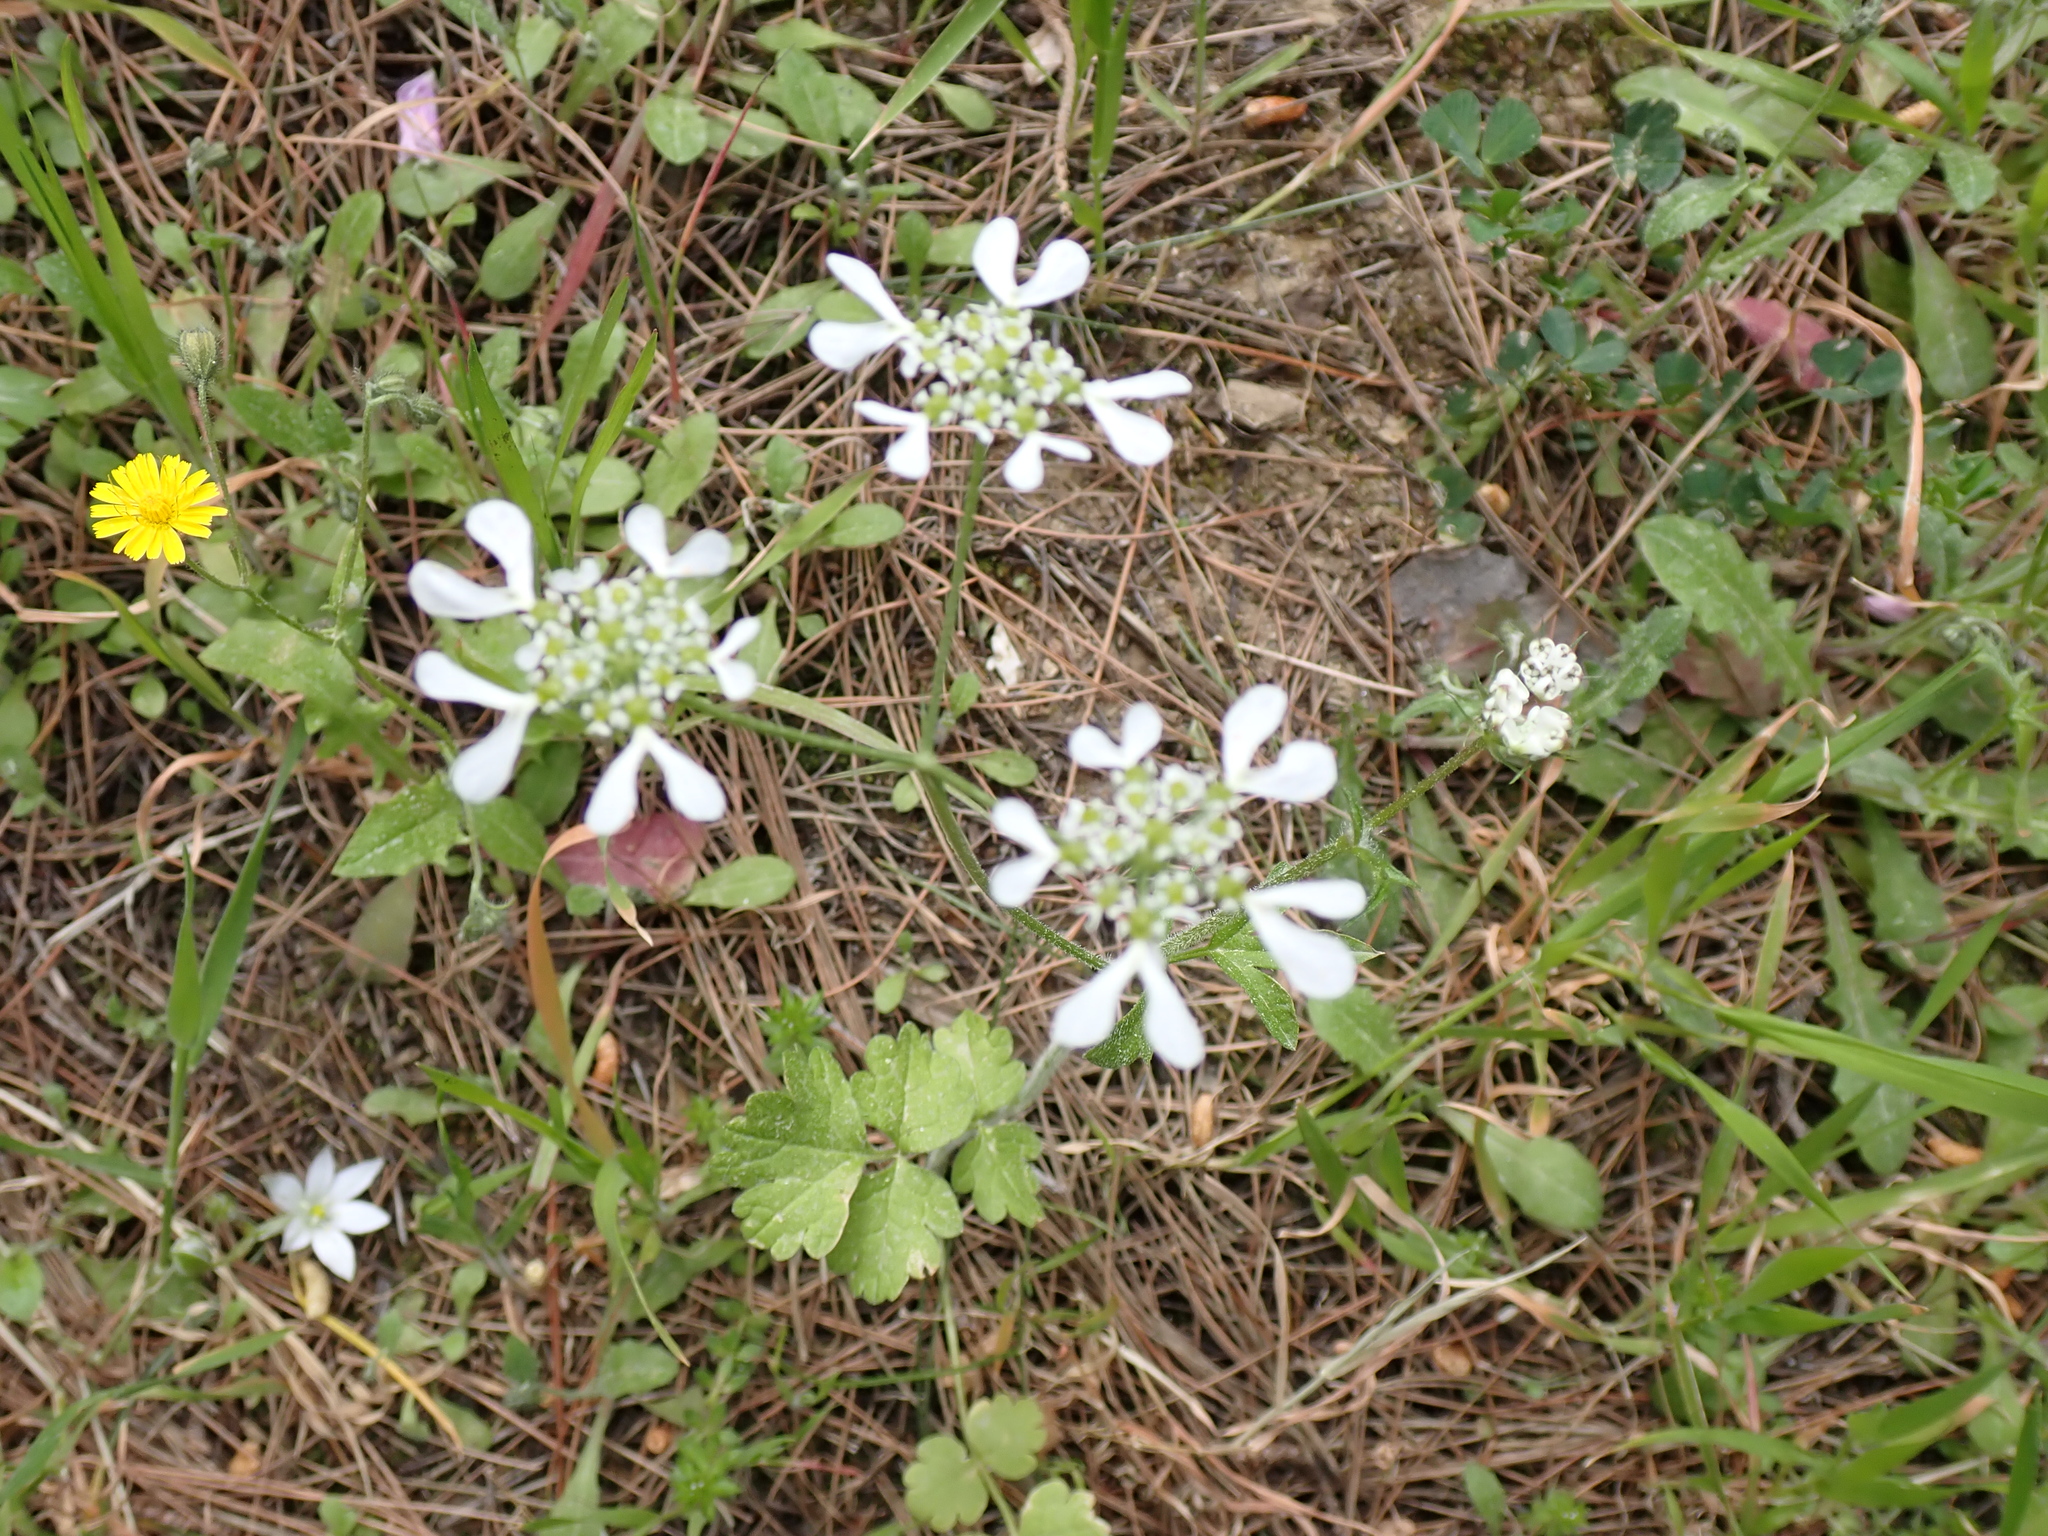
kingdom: Plantae
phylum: Tracheophyta
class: Magnoliopsida
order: Apiales
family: Apiaceae
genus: Tordylium
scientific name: Tordylium apulum
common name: Mediterranean hartwort
